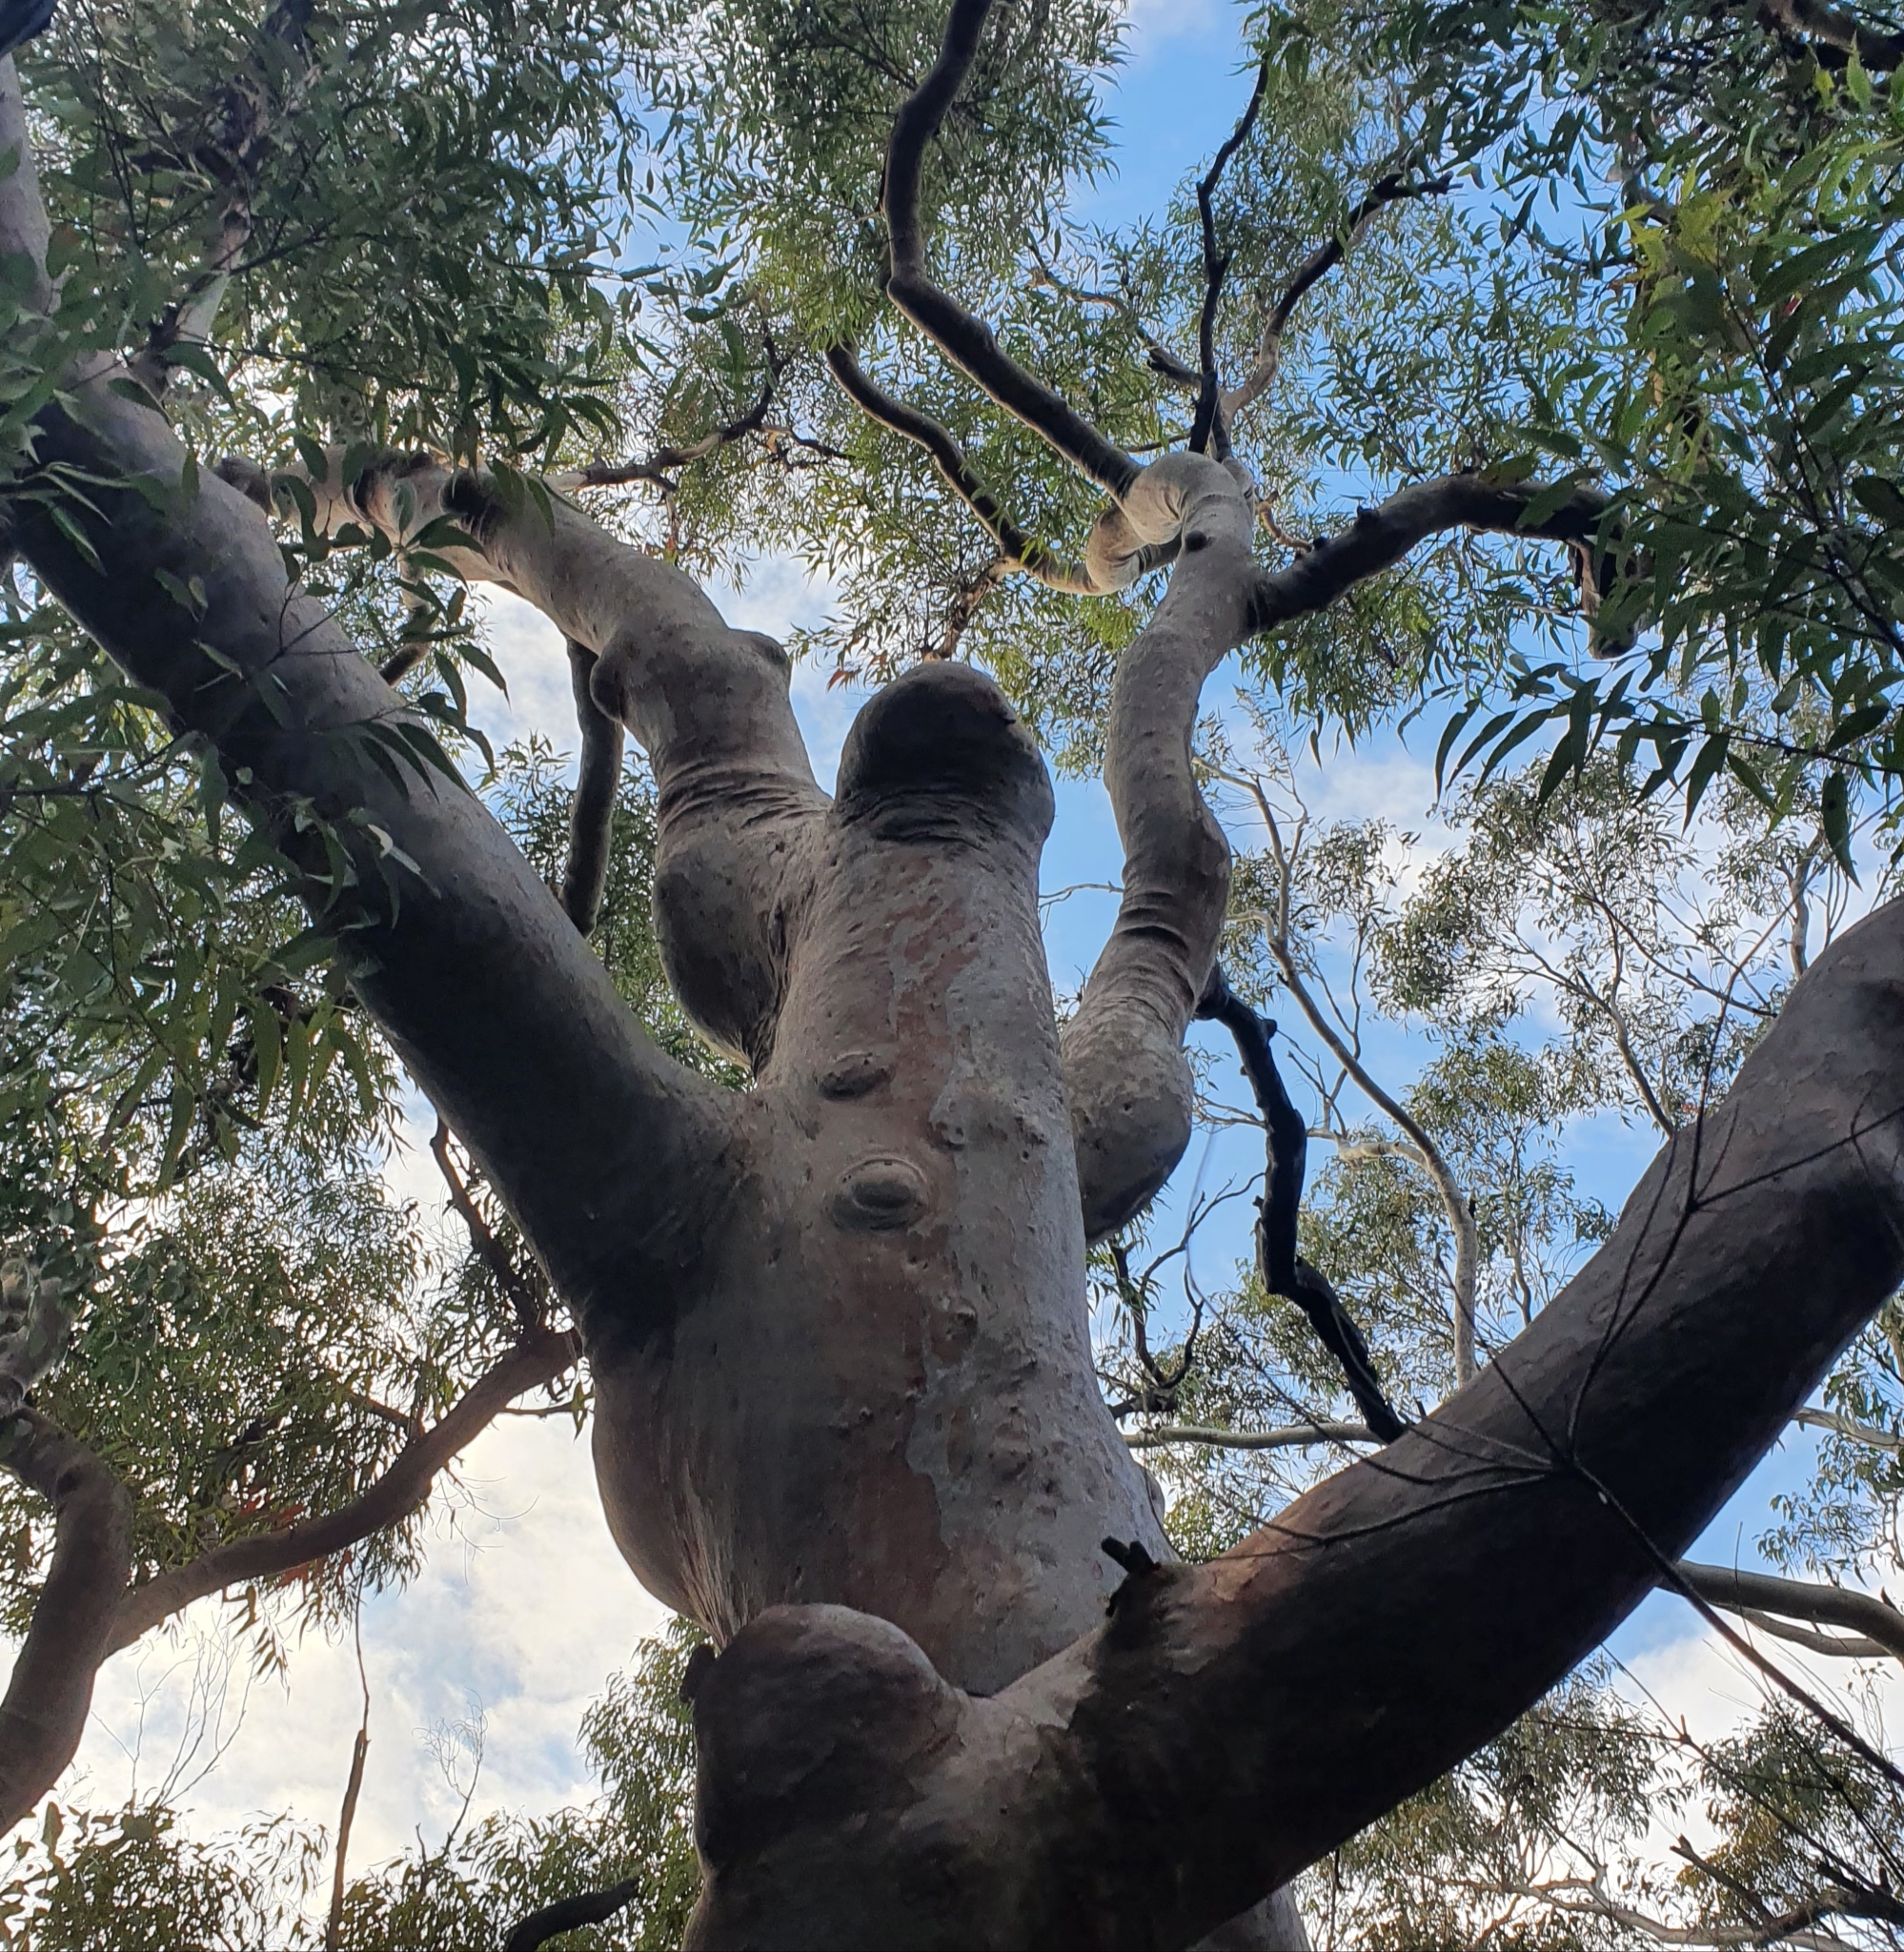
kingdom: Plantae
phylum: Tracheophyta
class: Magnoliopsida
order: Myrtales
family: Myrtaceae
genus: Angophora
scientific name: Angophora costata
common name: Gum myrtle
